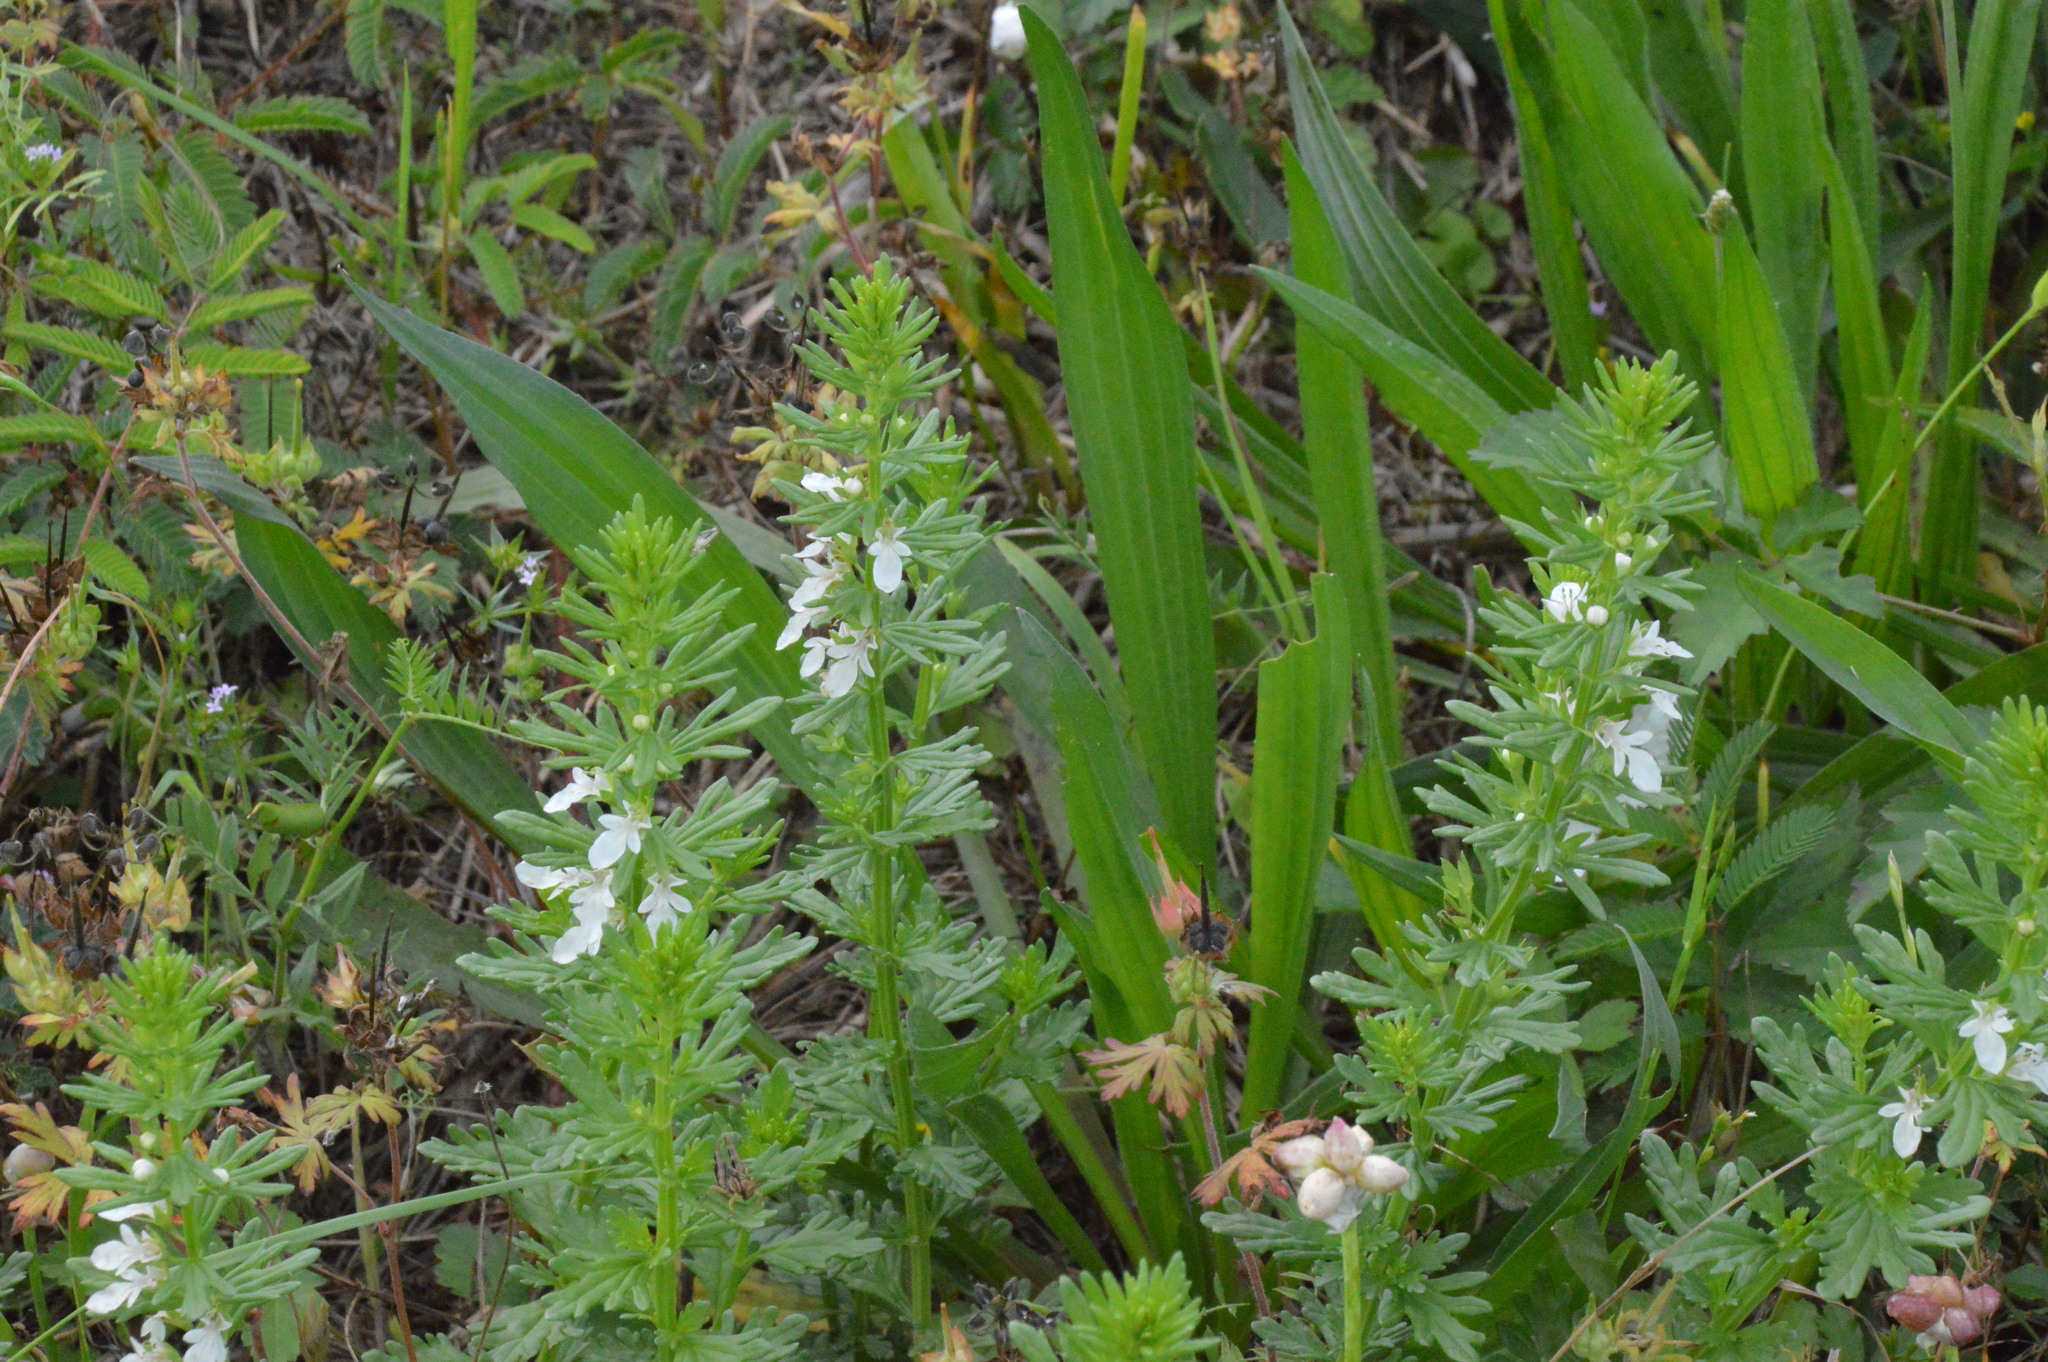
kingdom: Plantae
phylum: Tracheophyta
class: Magnoliopsida
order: Lamiales
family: Lamiaceae
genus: Teucrium
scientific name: Teucrium cubense
